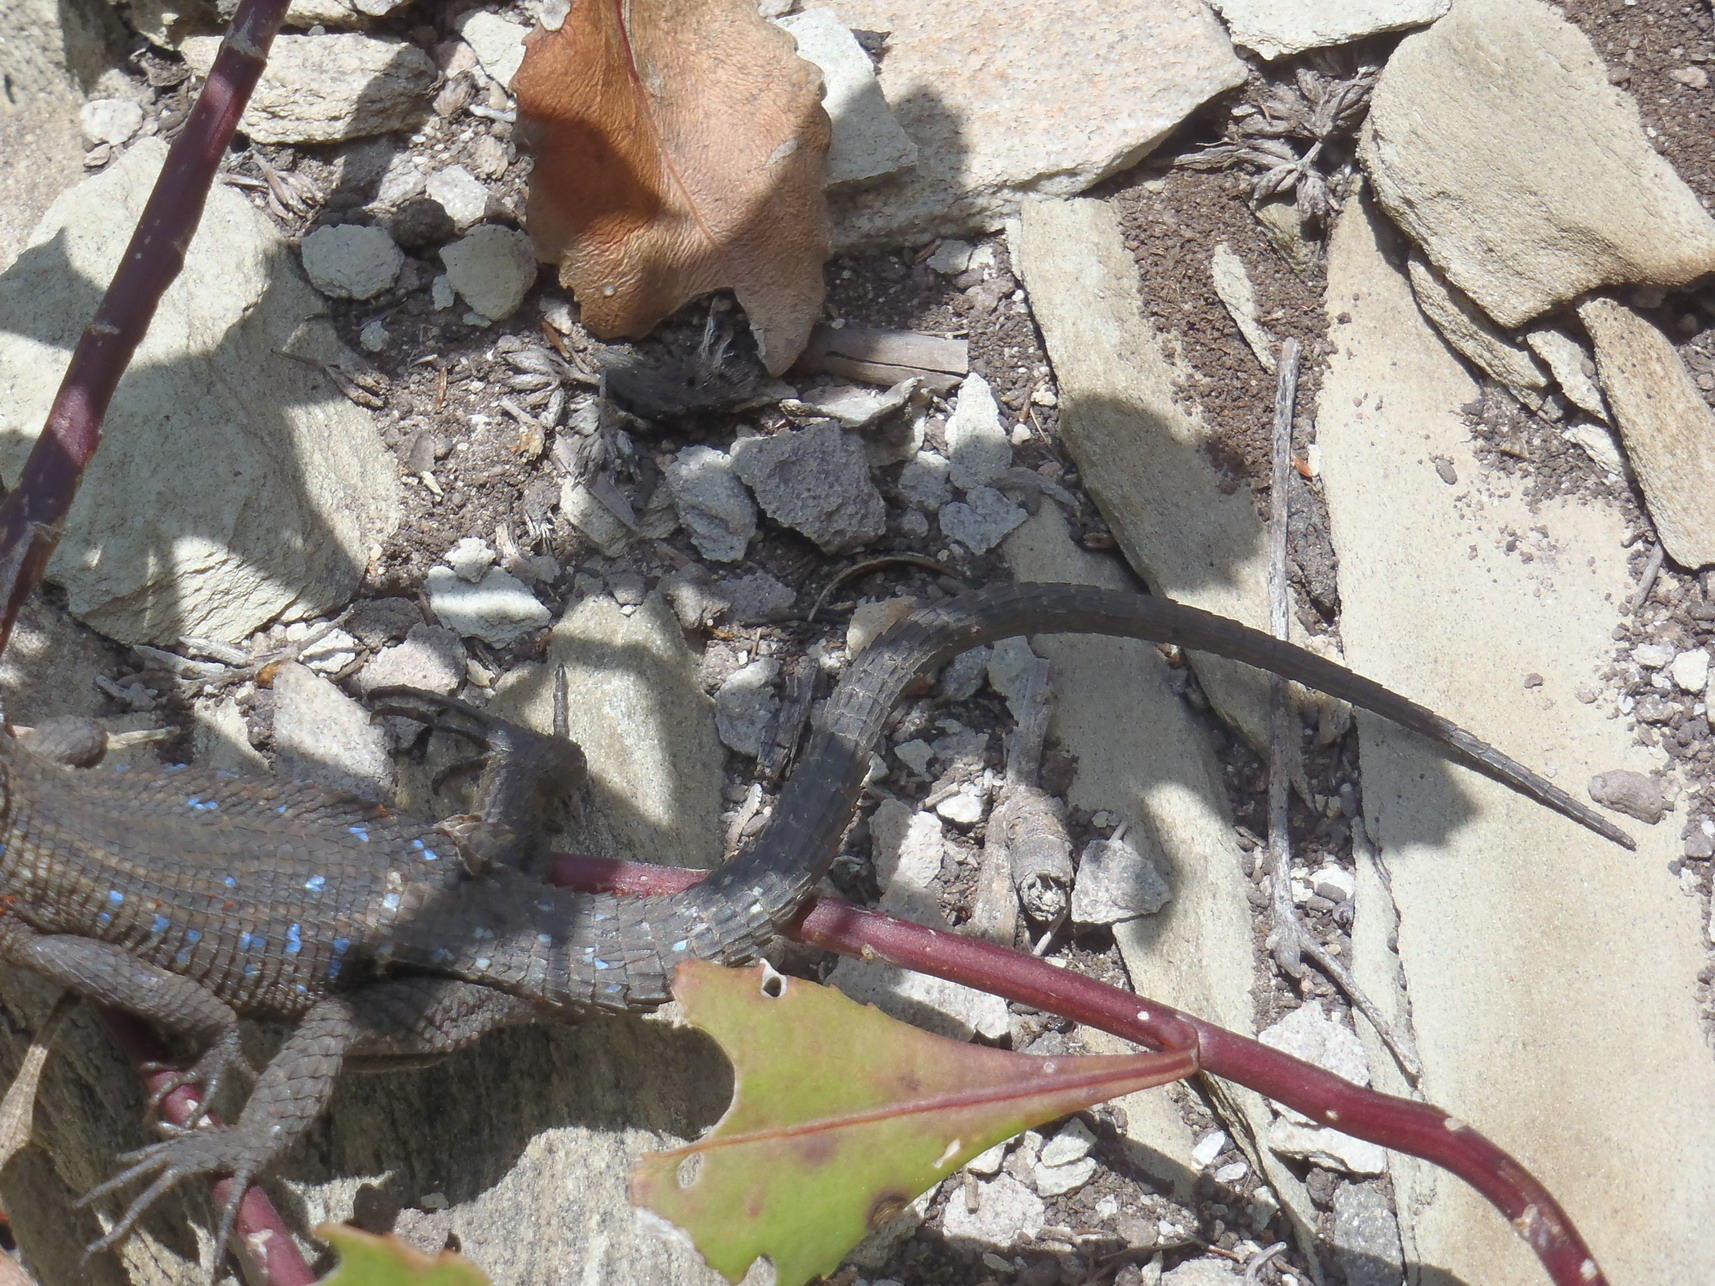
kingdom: Animalia
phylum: Chordata
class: Squamata
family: Cordylidae
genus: Ninurta
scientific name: Ninurta coeruleopunctatus
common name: Blue-spotted girdled lizard
